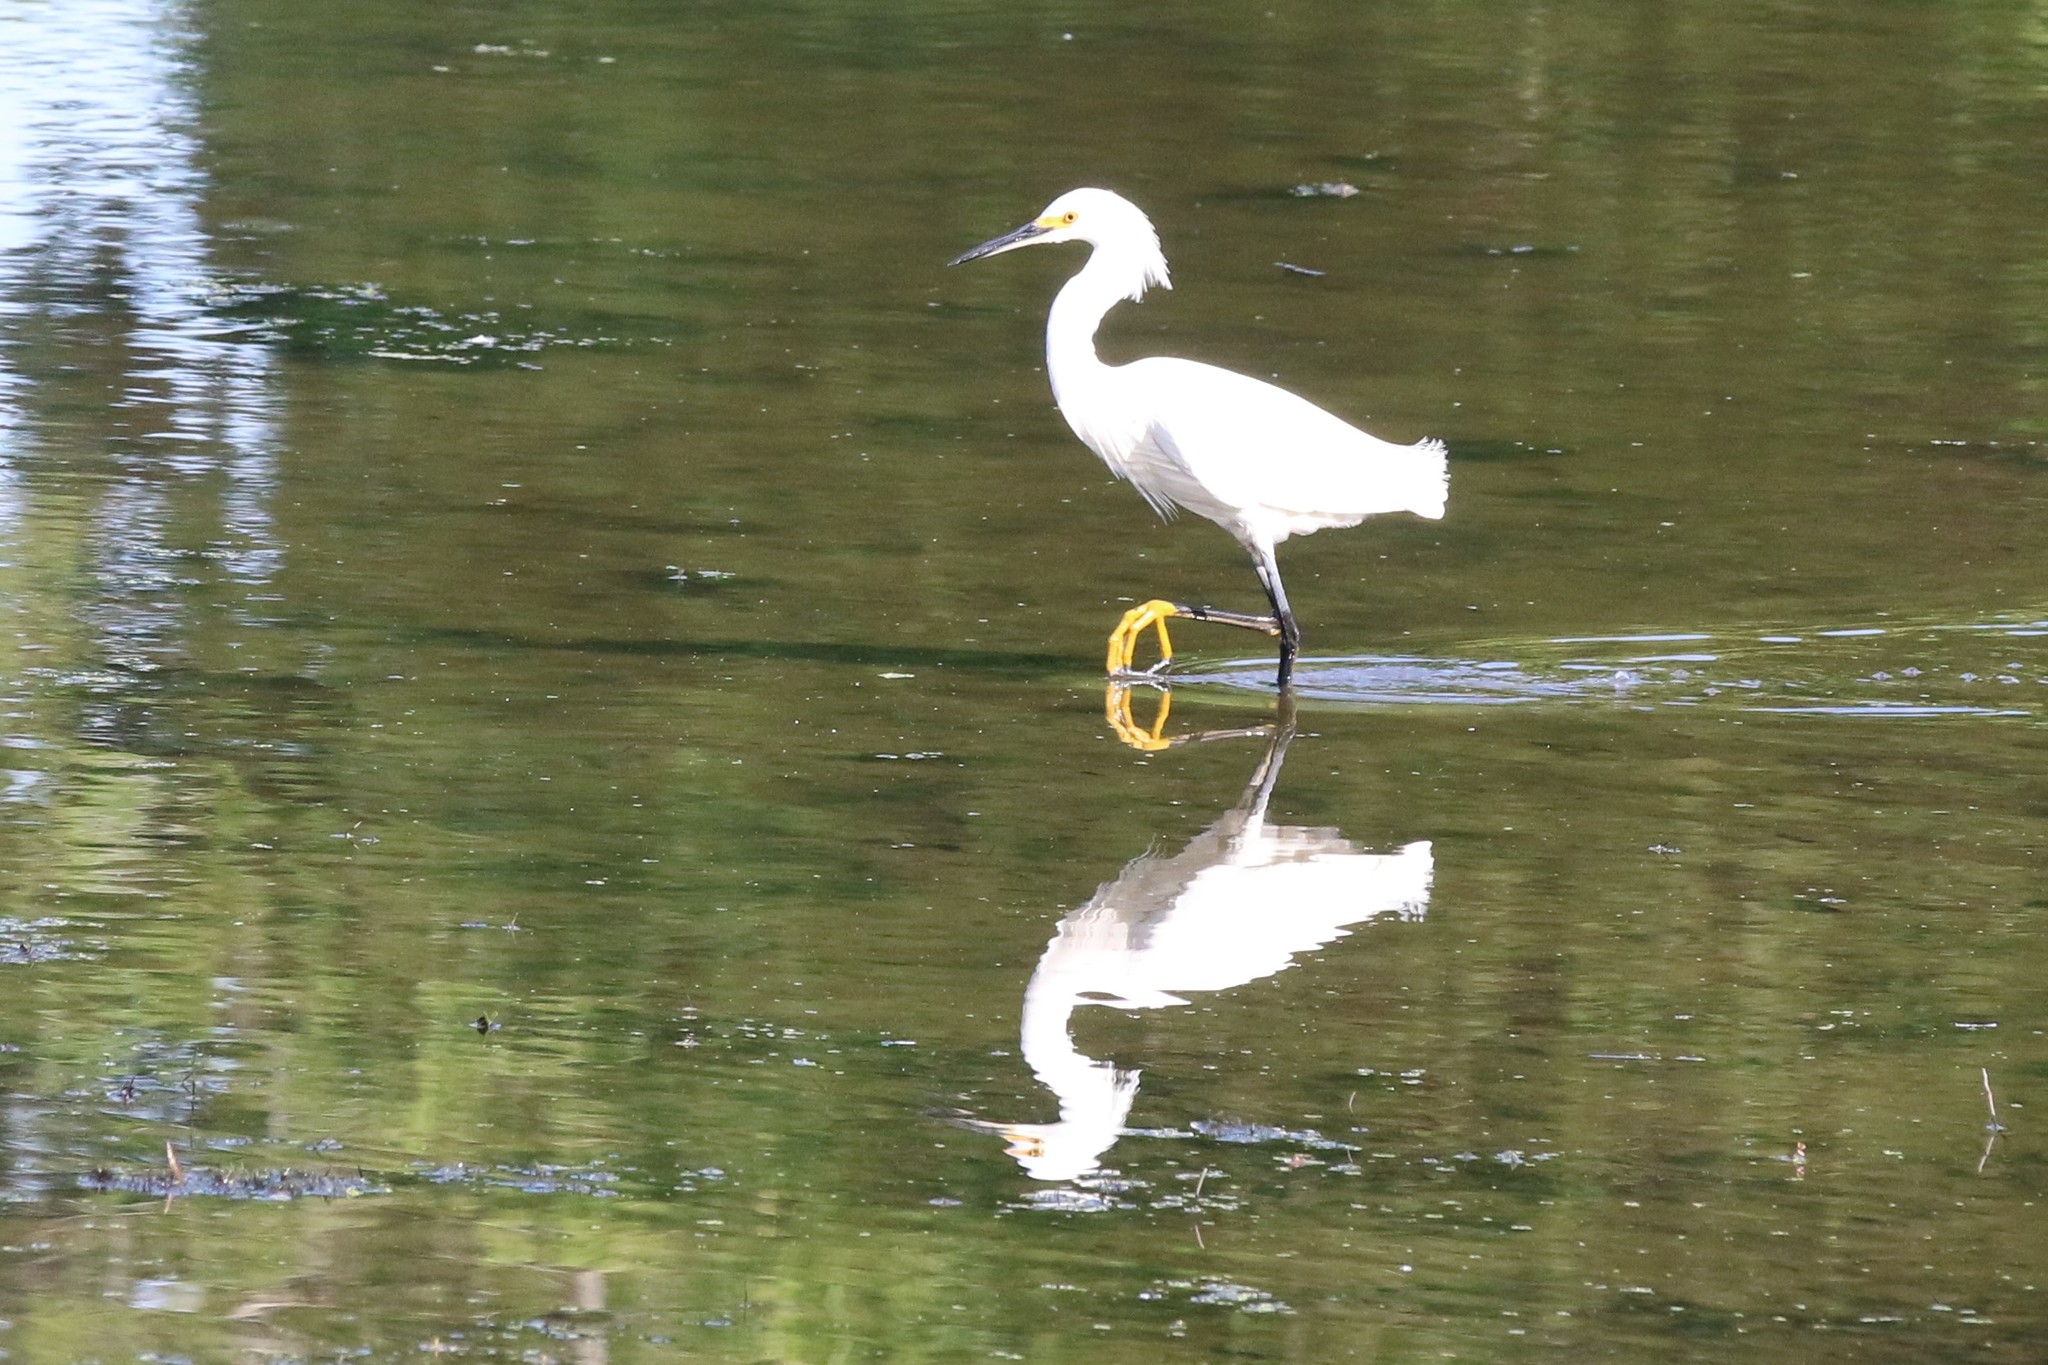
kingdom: Animalia
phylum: Chordata
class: Aves
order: Pelecaniformes
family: Ardeidae
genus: Egretta
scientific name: Egretta thula
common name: Snowy egret
